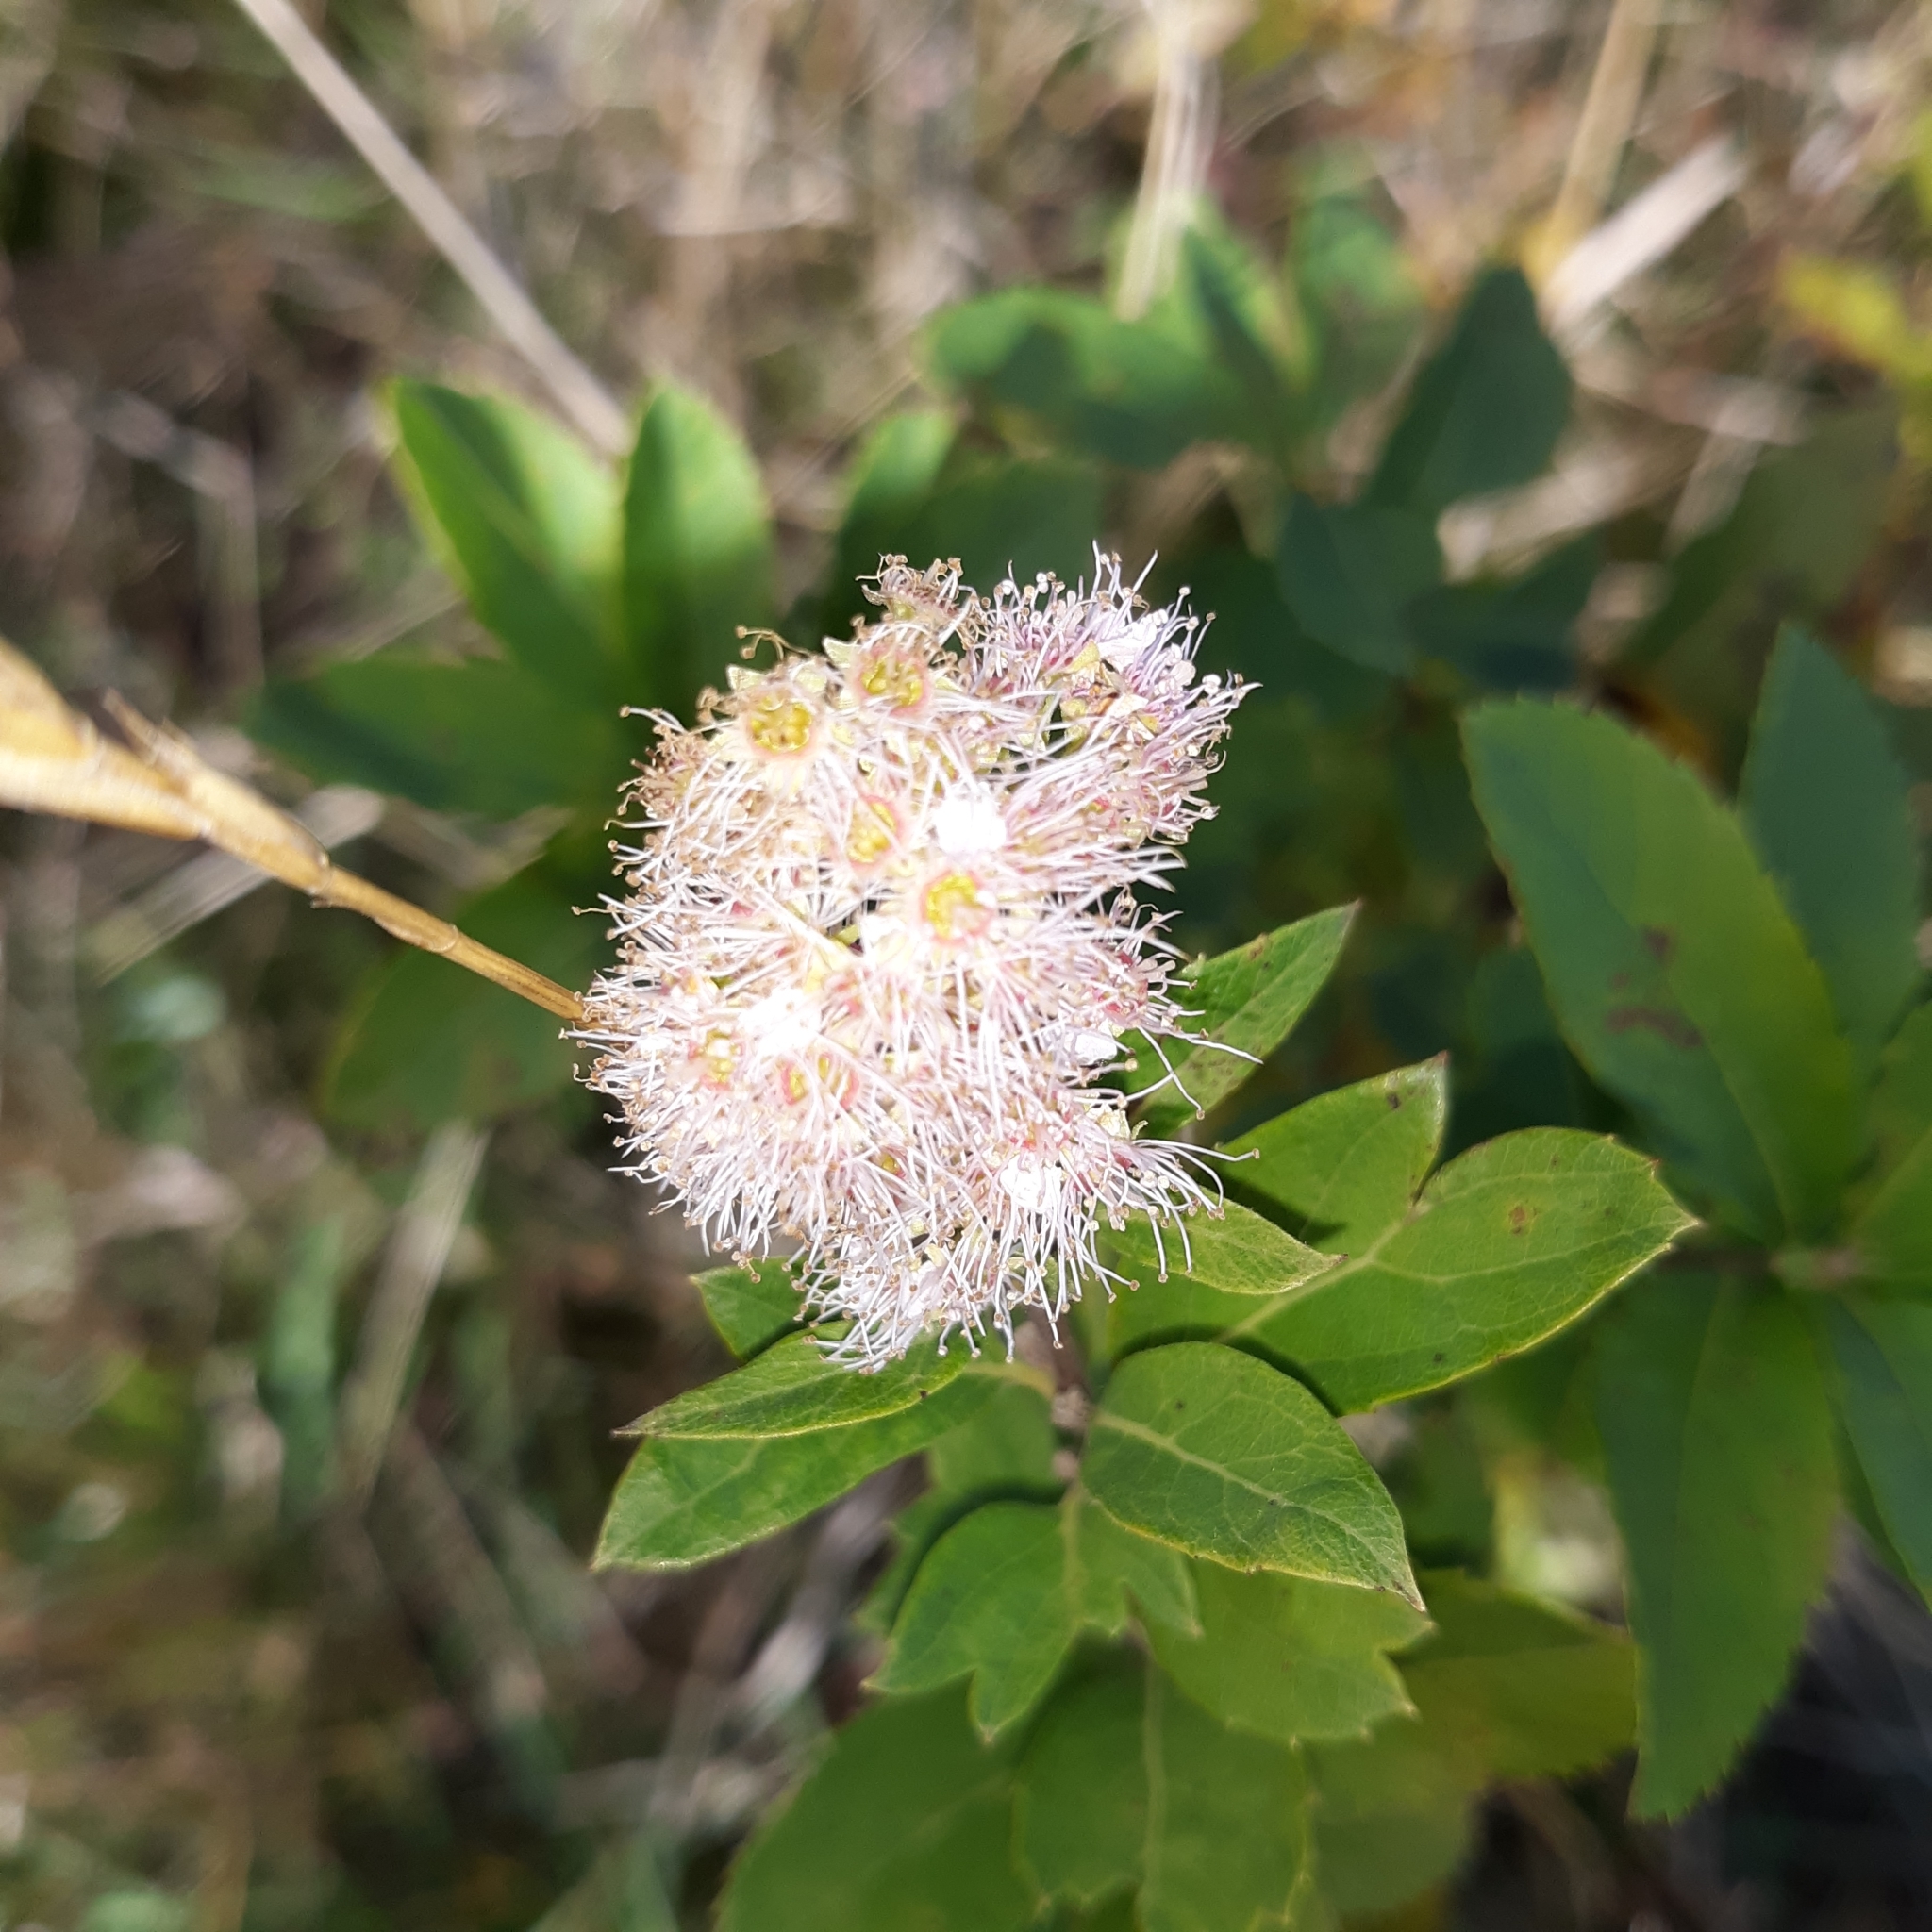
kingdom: Plantae
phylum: Tracheophyta
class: Magnoliopsida
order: Rosales
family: Rosaceae
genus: Spiraea
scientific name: Spiraea alba
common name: Pale bridewort
